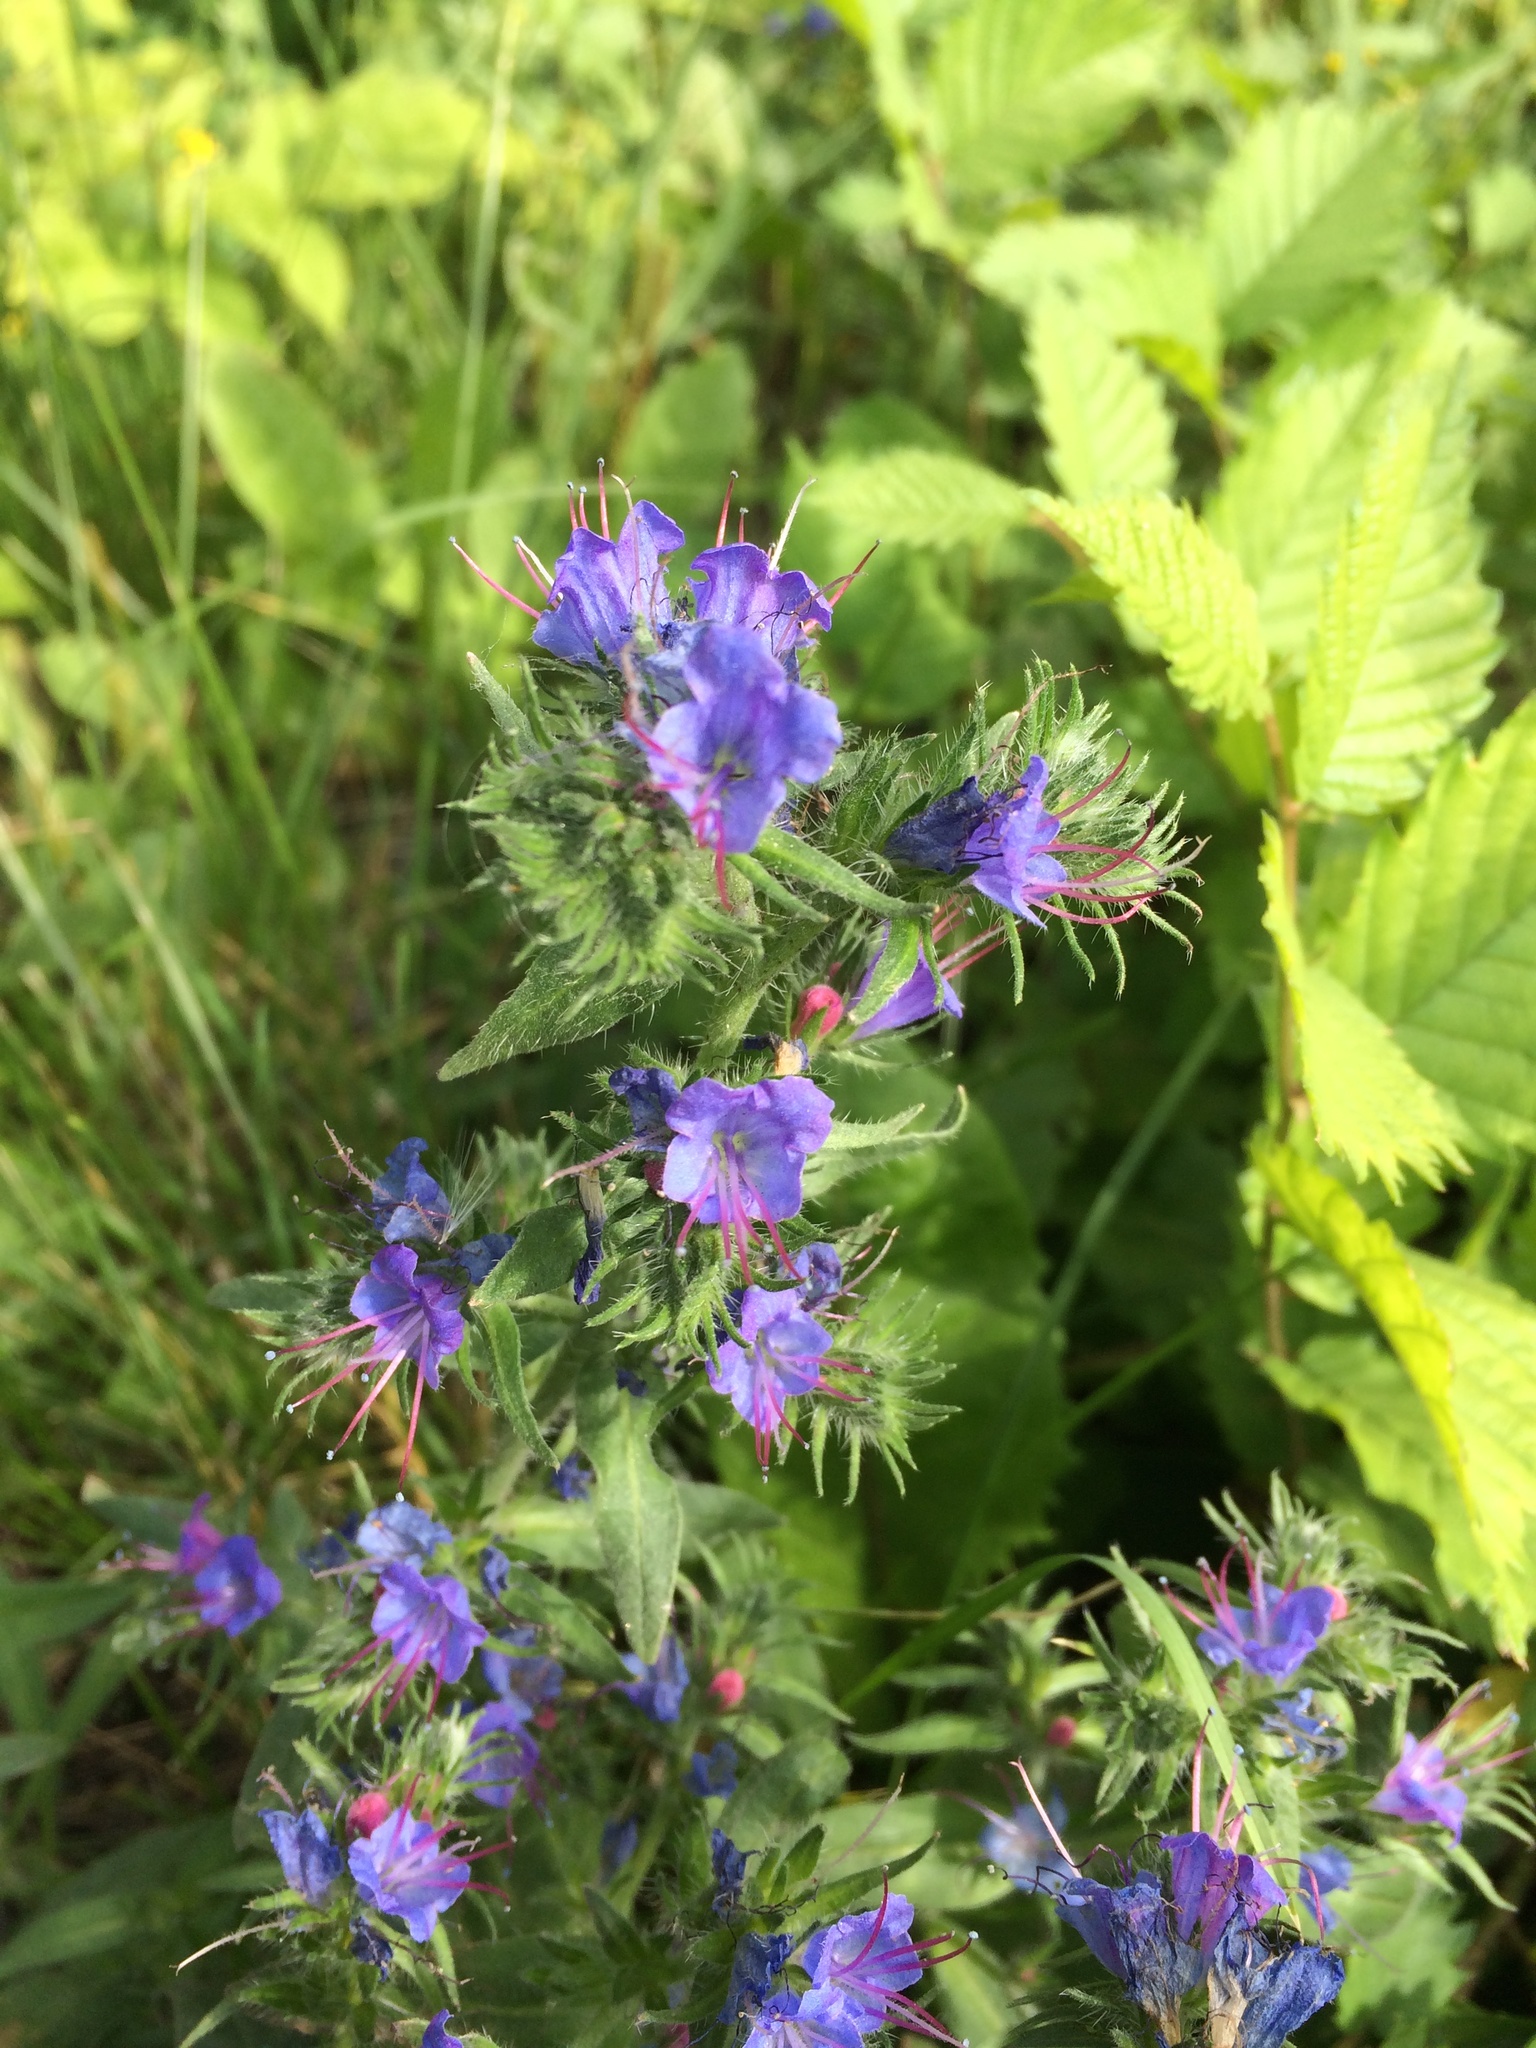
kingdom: Plantae
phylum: Tracheophyta
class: Magnoliopsida
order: Boraginales
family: Boraginaceae
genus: Echium
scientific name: Echium vulgare
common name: Common viper's bugloss
